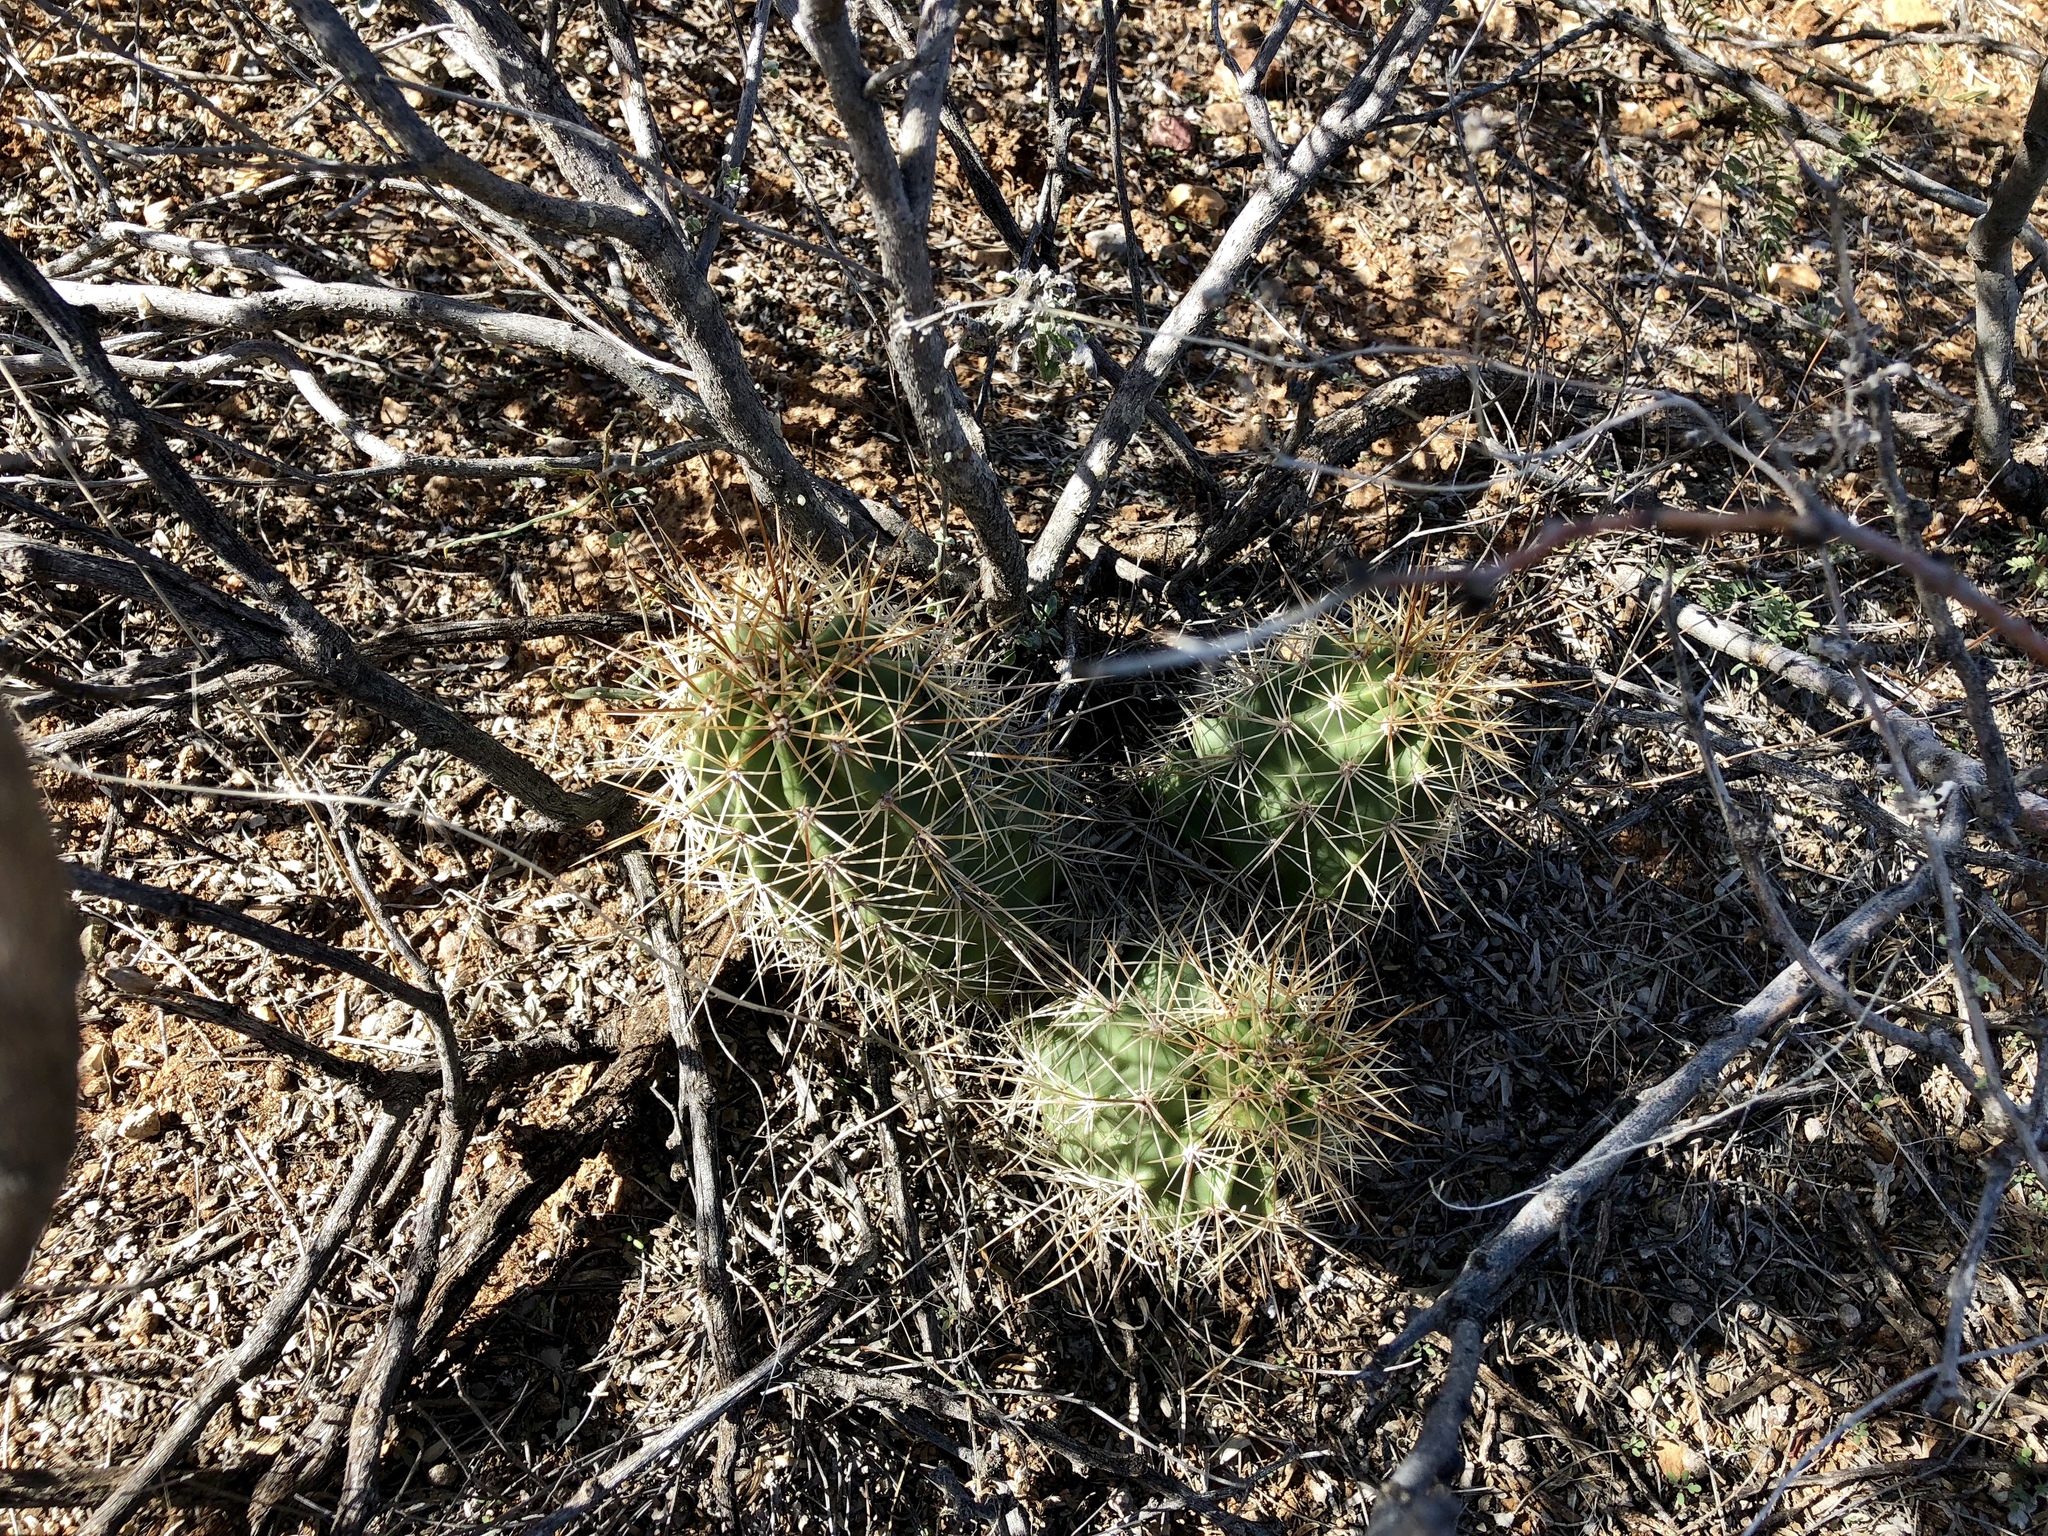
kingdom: Plantae
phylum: Tracheophyta
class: Magnoliopsida
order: Caryophyllales
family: Cactaceae
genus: Echinocereus
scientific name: Echinocereus coccineus
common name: Scarlet hedgehog cactus
